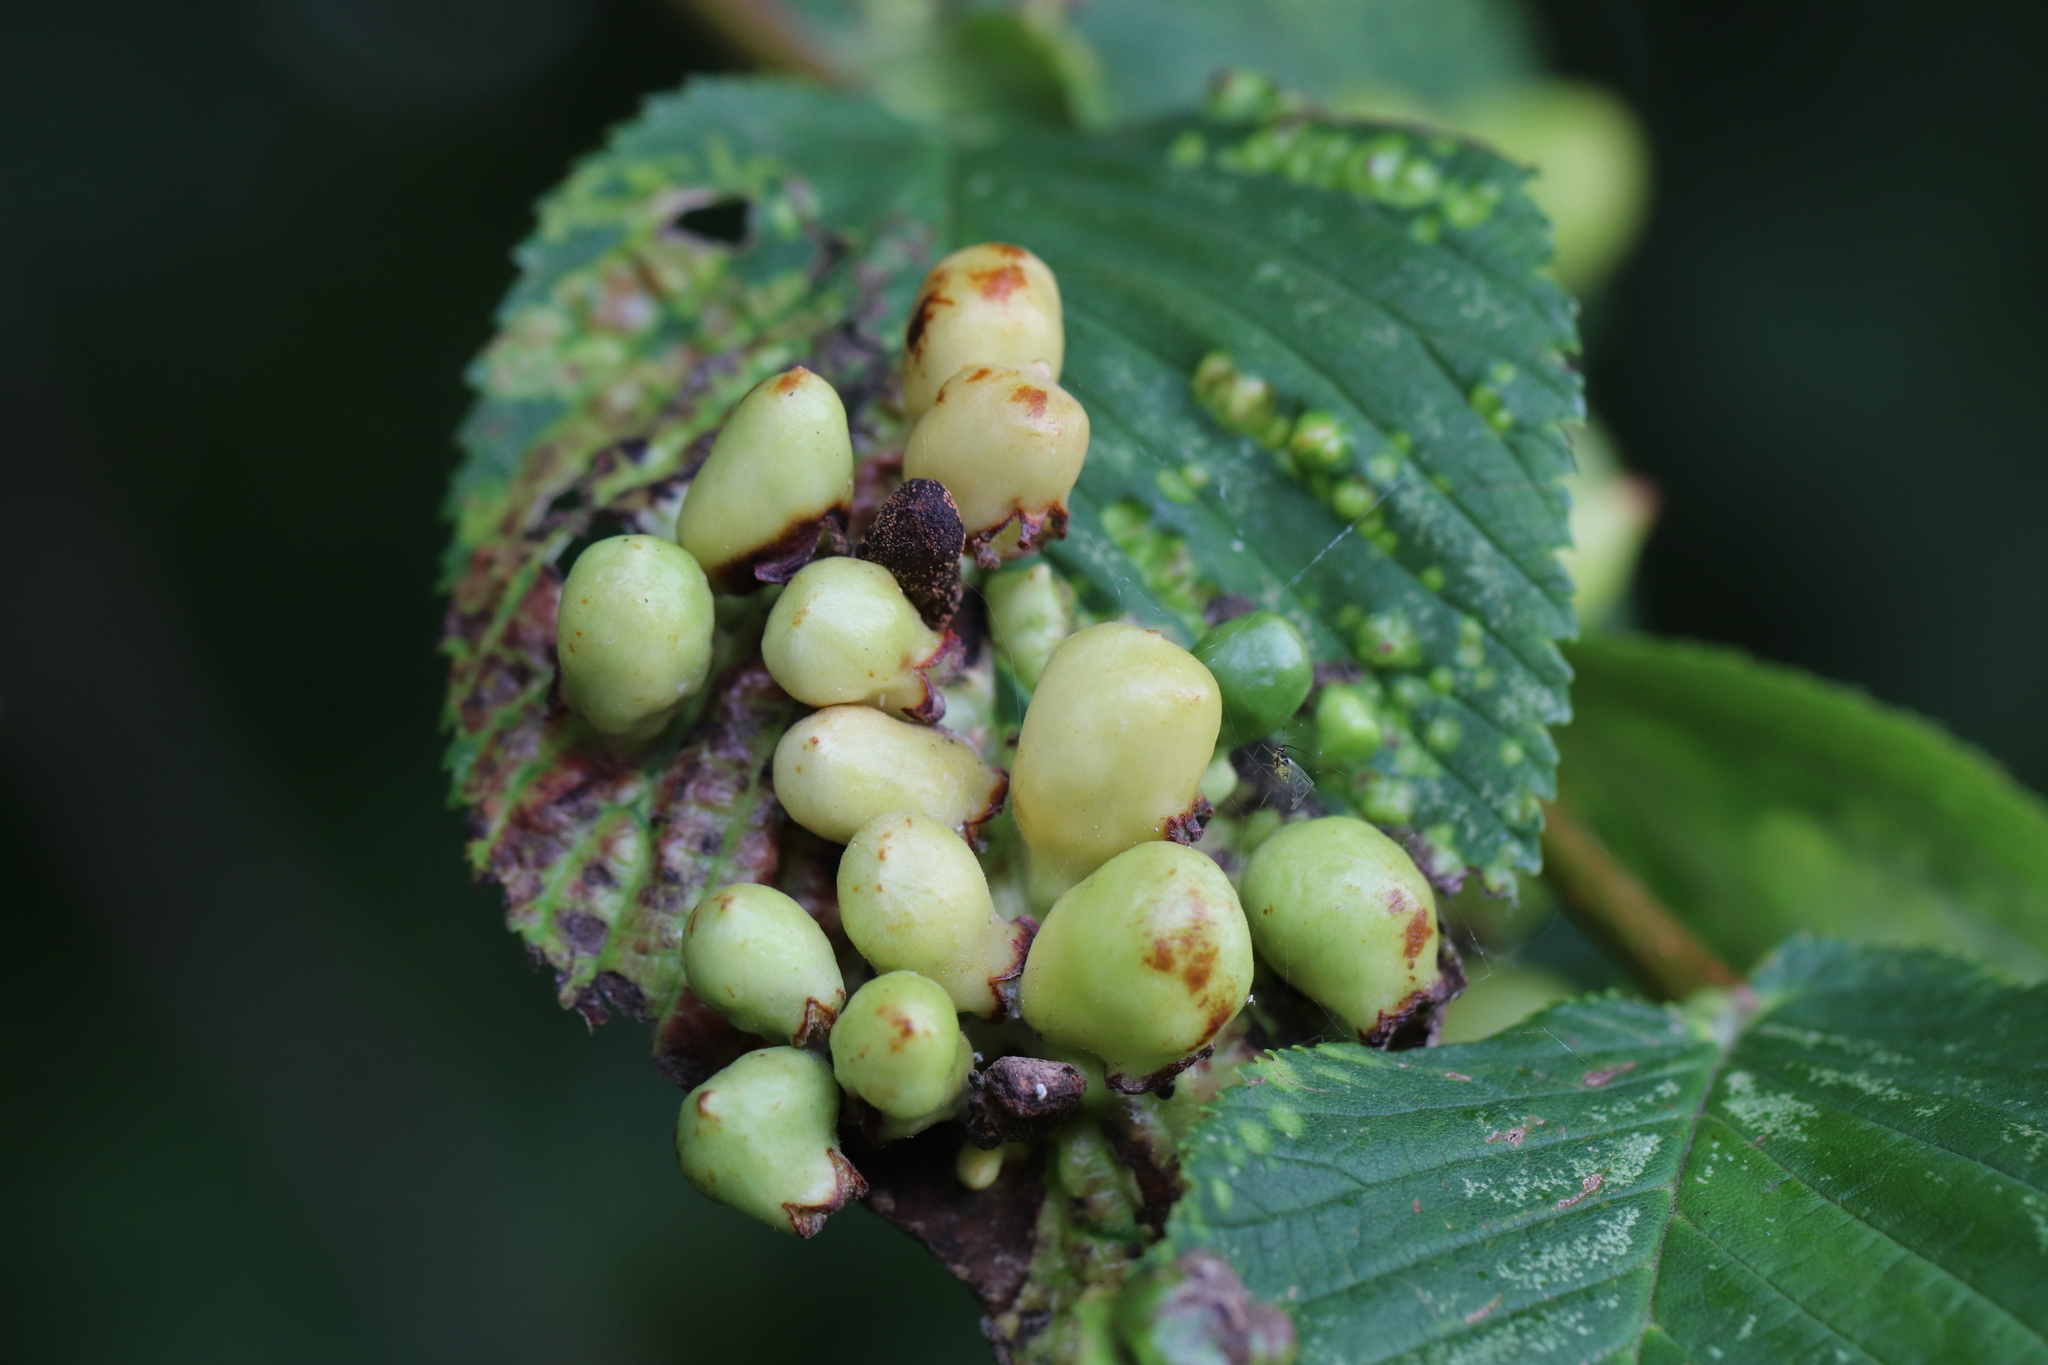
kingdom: Animalia
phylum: Arthropoda
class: Insecta
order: Hemiptera
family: Aphididae
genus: Tetraneura
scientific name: Tetraneura ulmi
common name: Aphid
